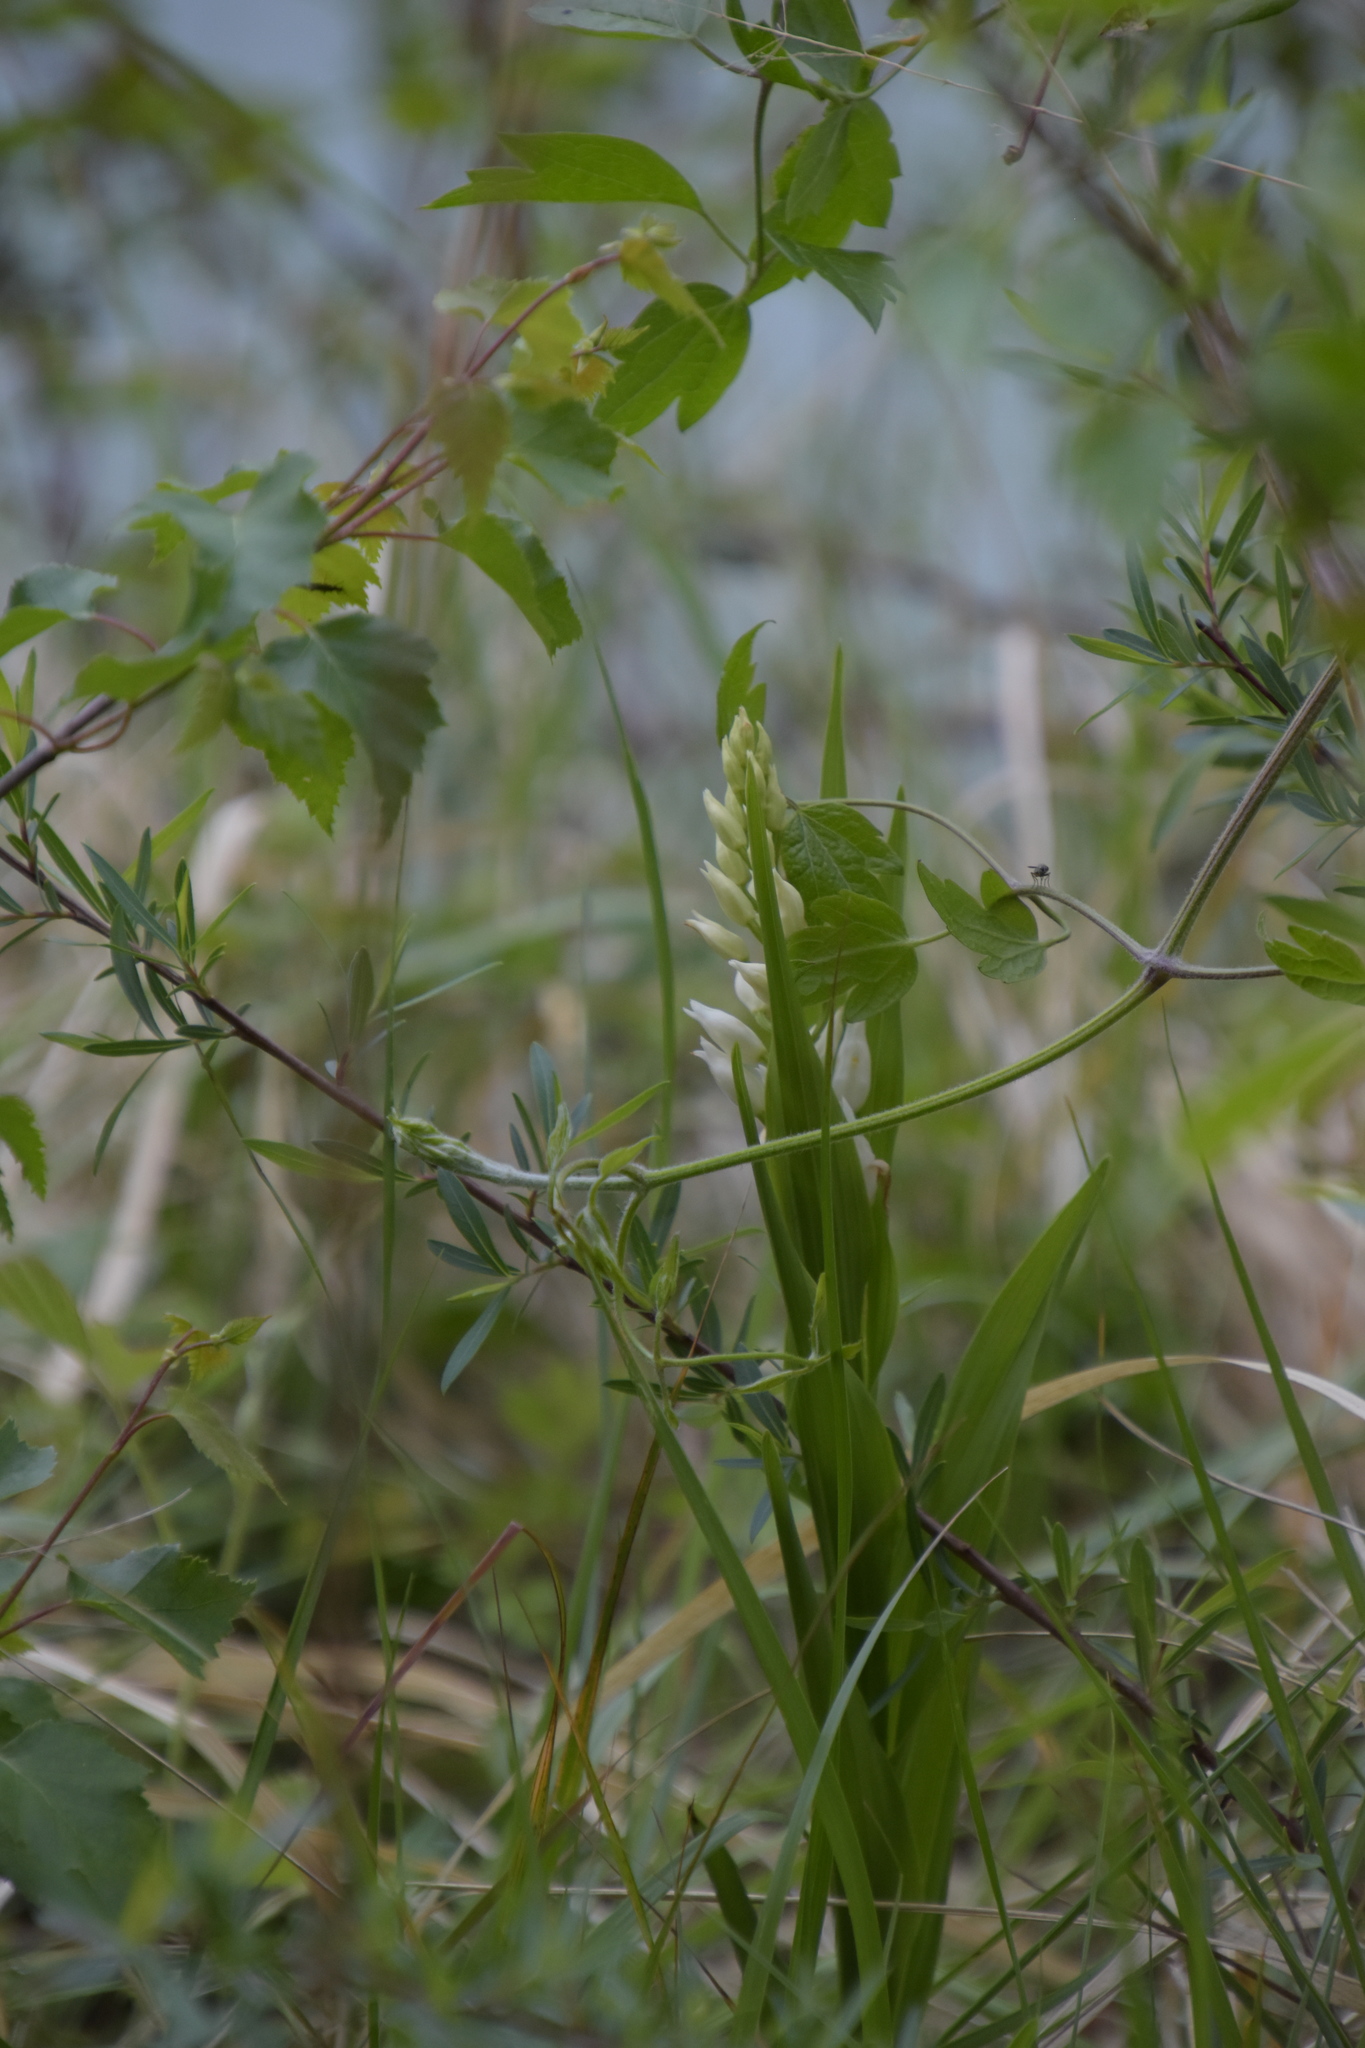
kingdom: Plantae
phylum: Tracheophyta
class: Liliopsida
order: Asparagales
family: Orchidaceae
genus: Cephalanthera
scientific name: Cephalanthera longifolia
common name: Narrow-leaved helleborine
